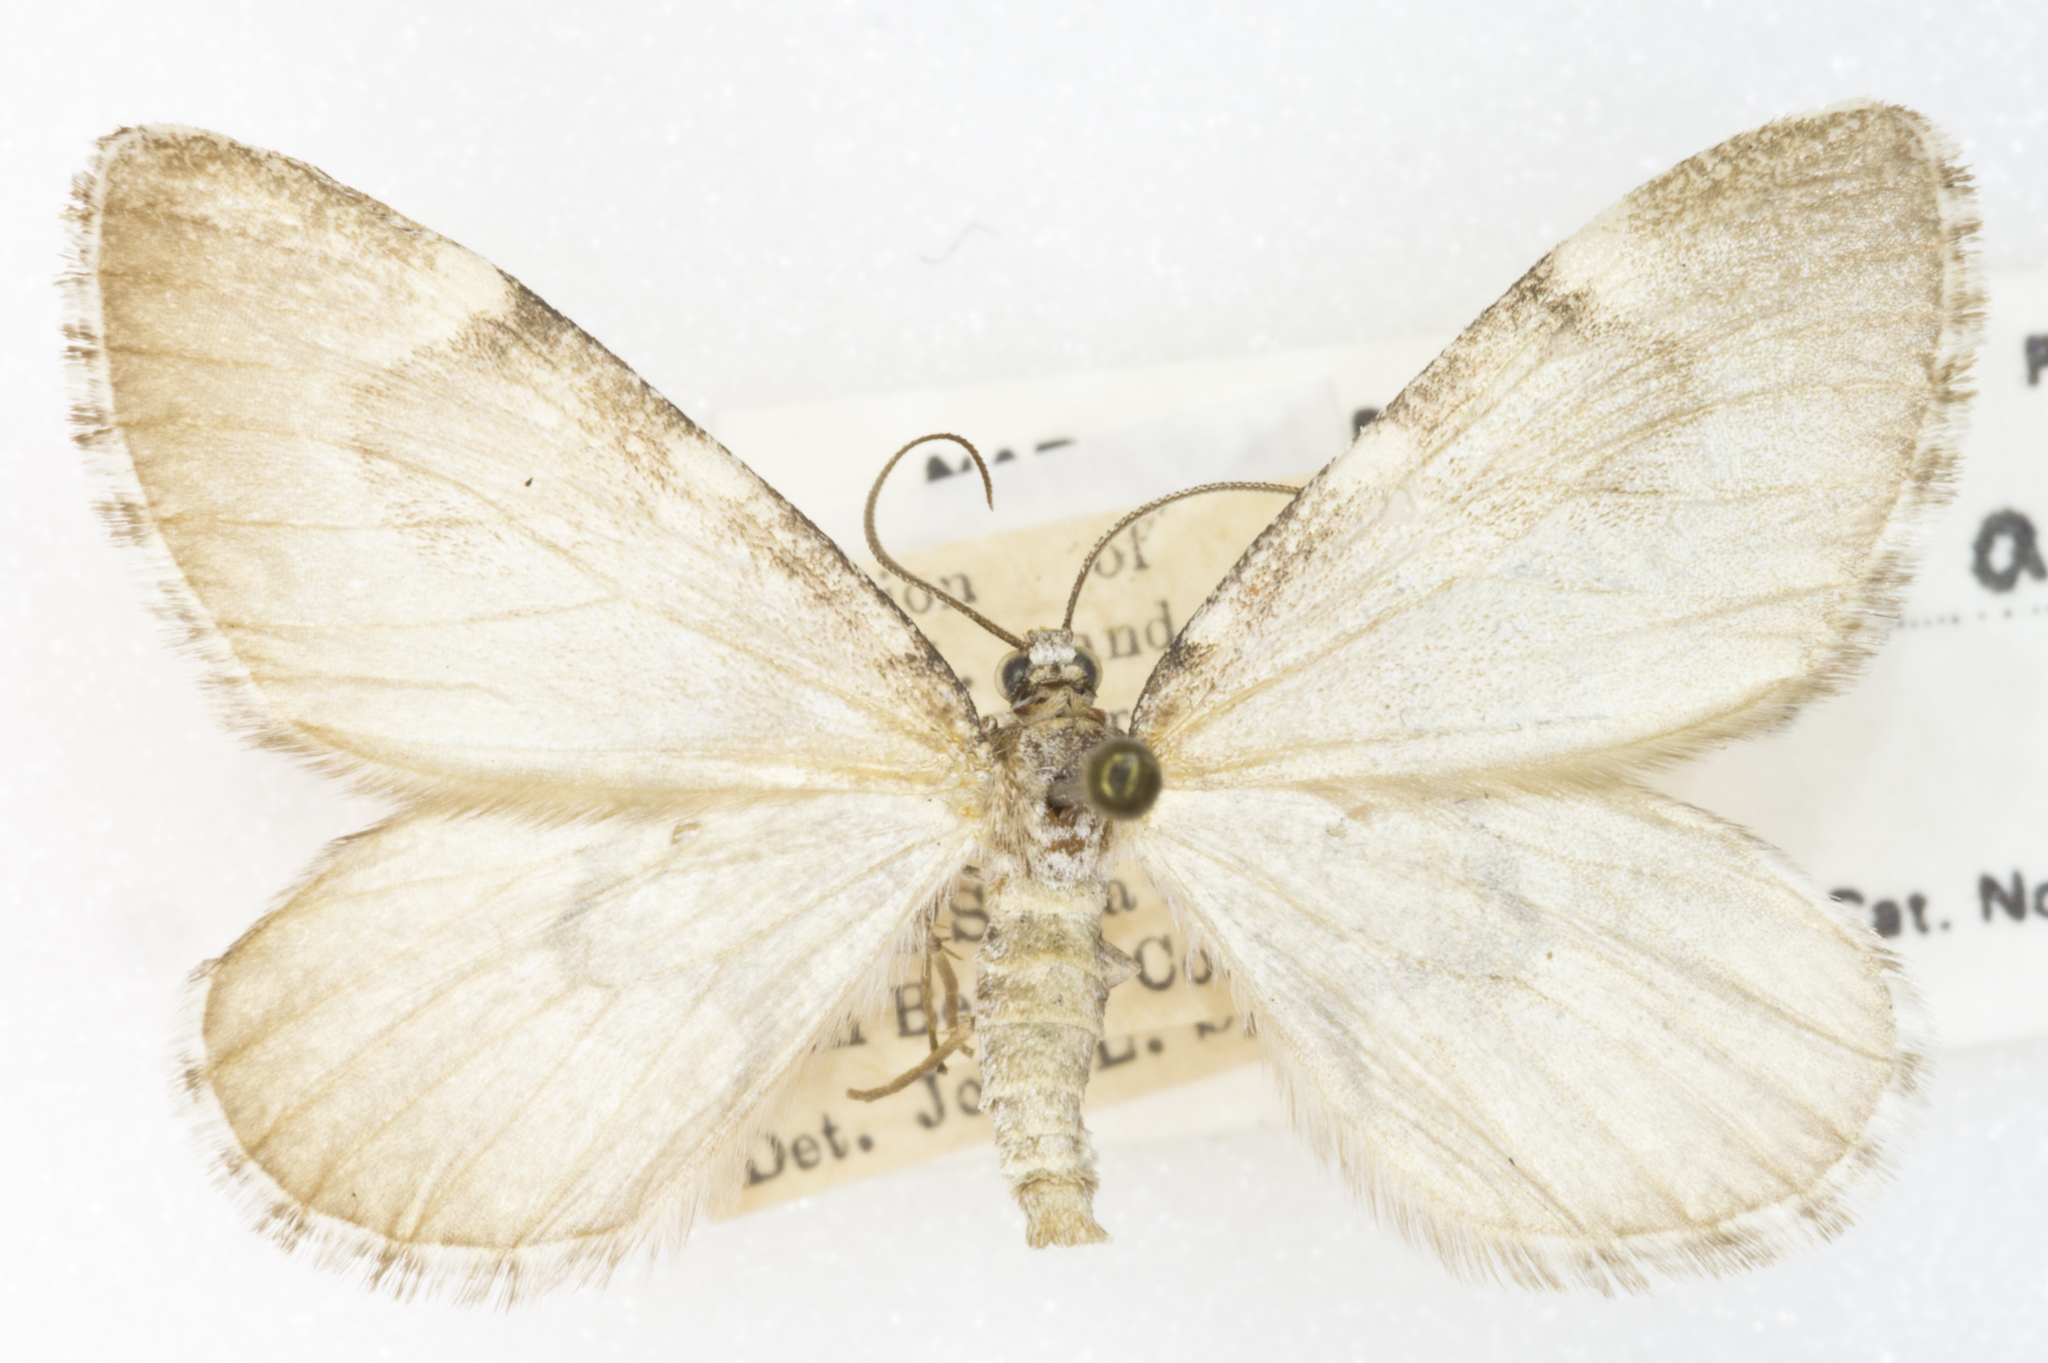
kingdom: Animalia
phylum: Arthropoda
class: Insecta
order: Lepidoptera
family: Geometridae
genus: Stamnodes
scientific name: Stamnodes animata
